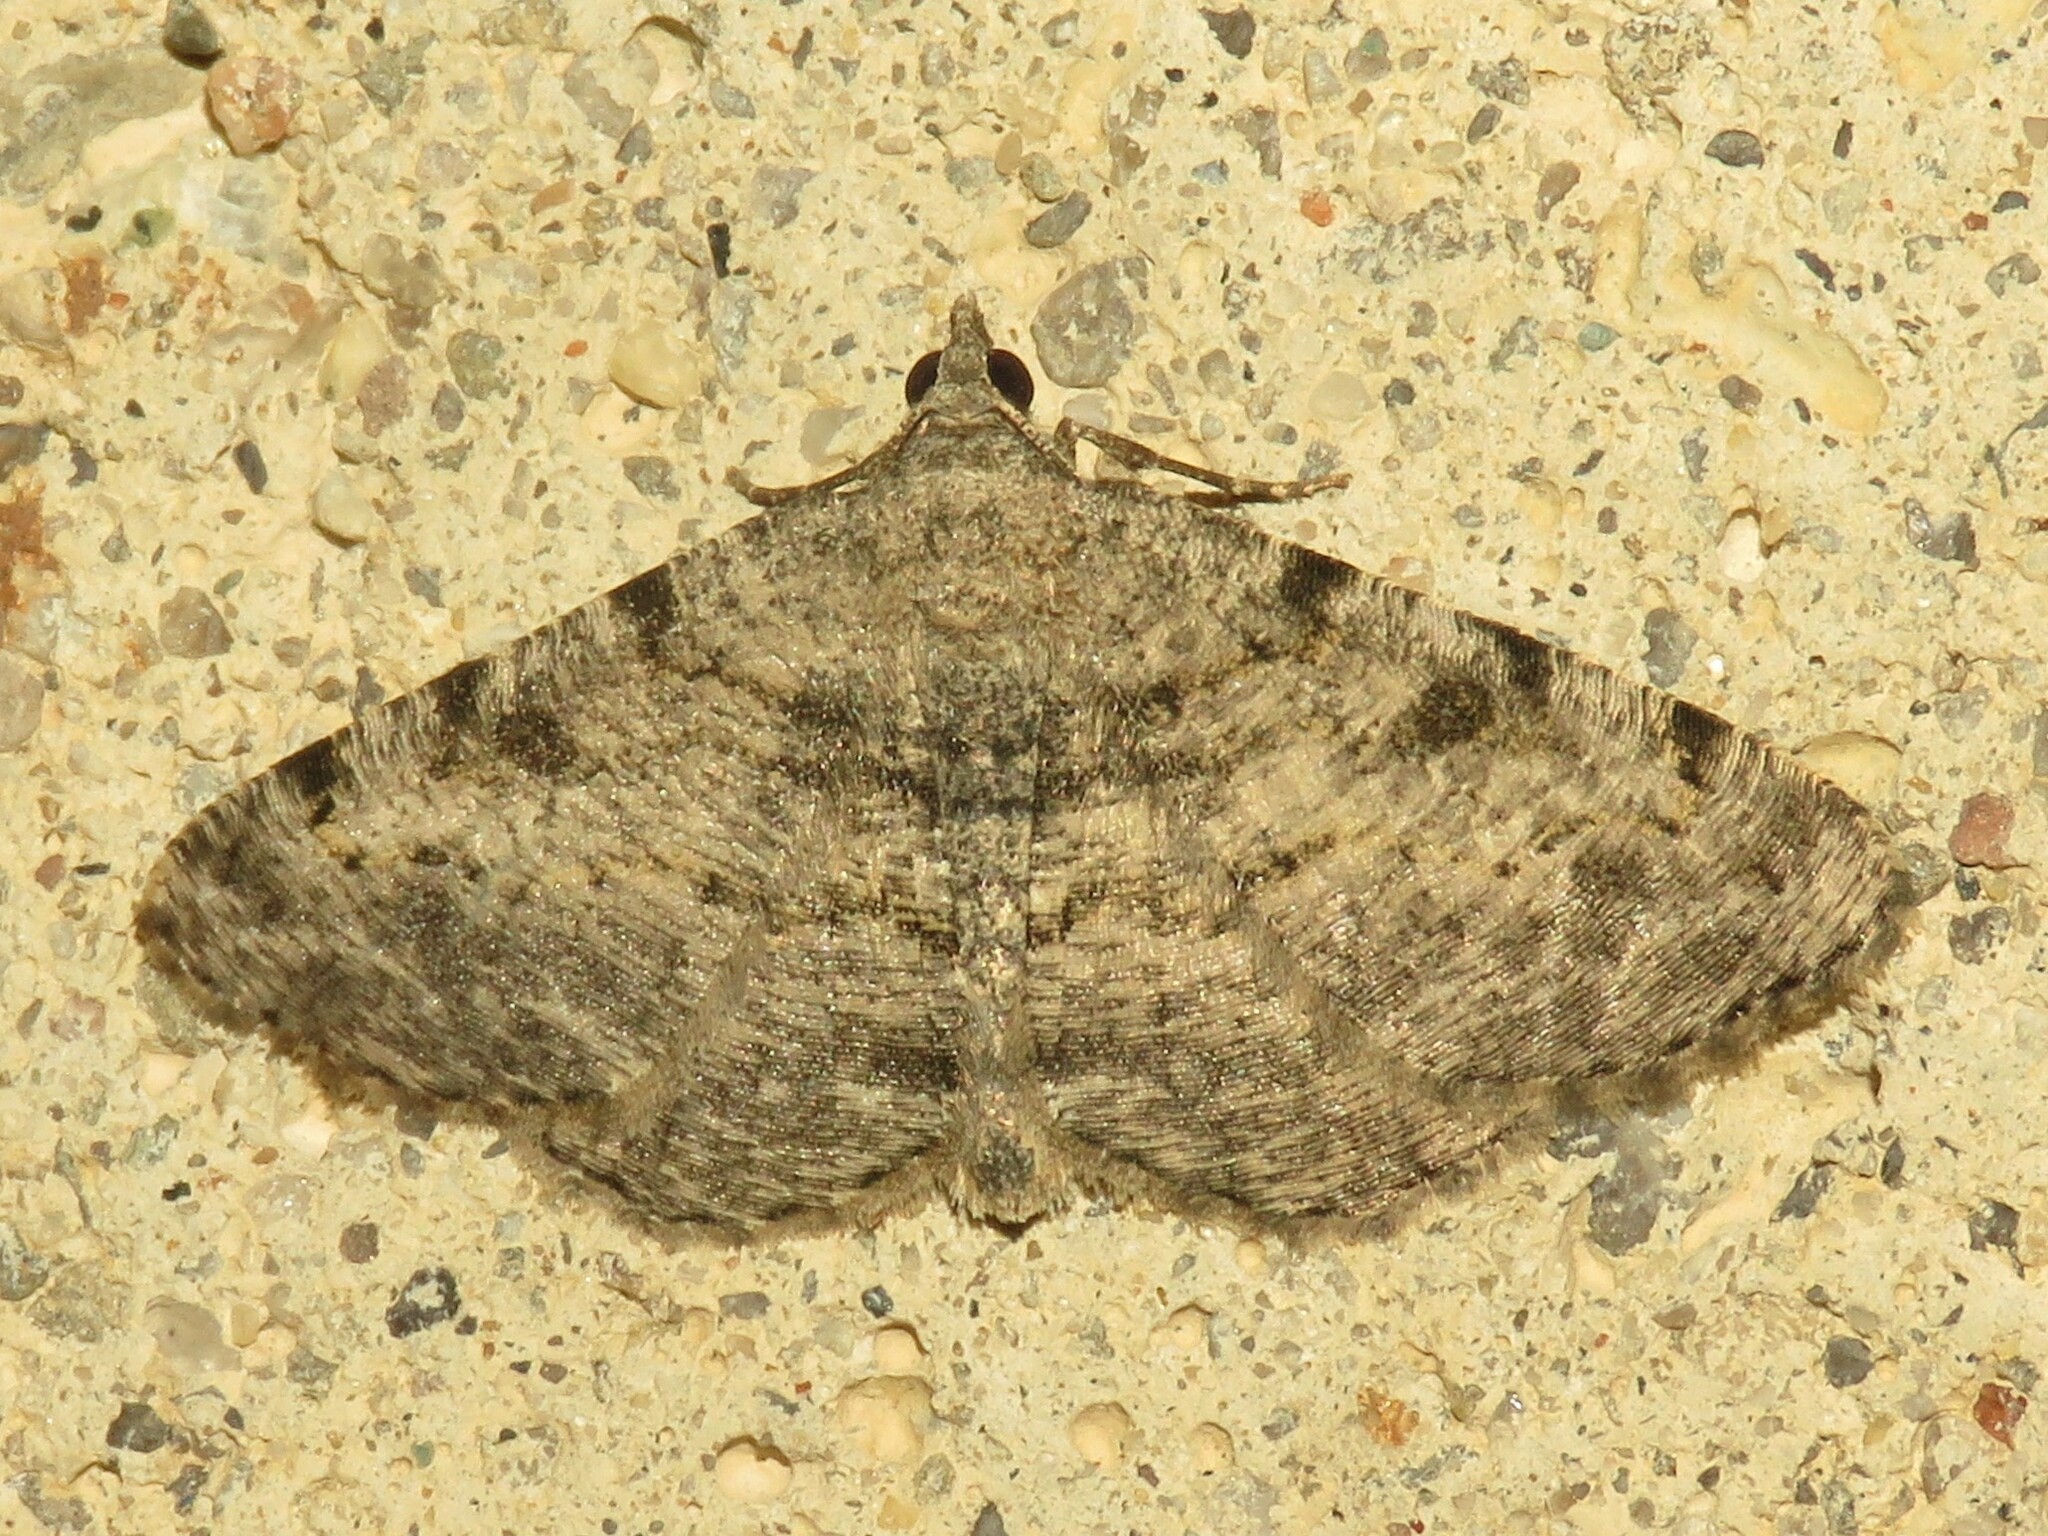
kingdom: Animalia
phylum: Arthropoda
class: Insecta
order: Lepidoptera
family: Geometridae
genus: Digrammia
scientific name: Digrammia gnophosaria
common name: Hollow-spotted angle
